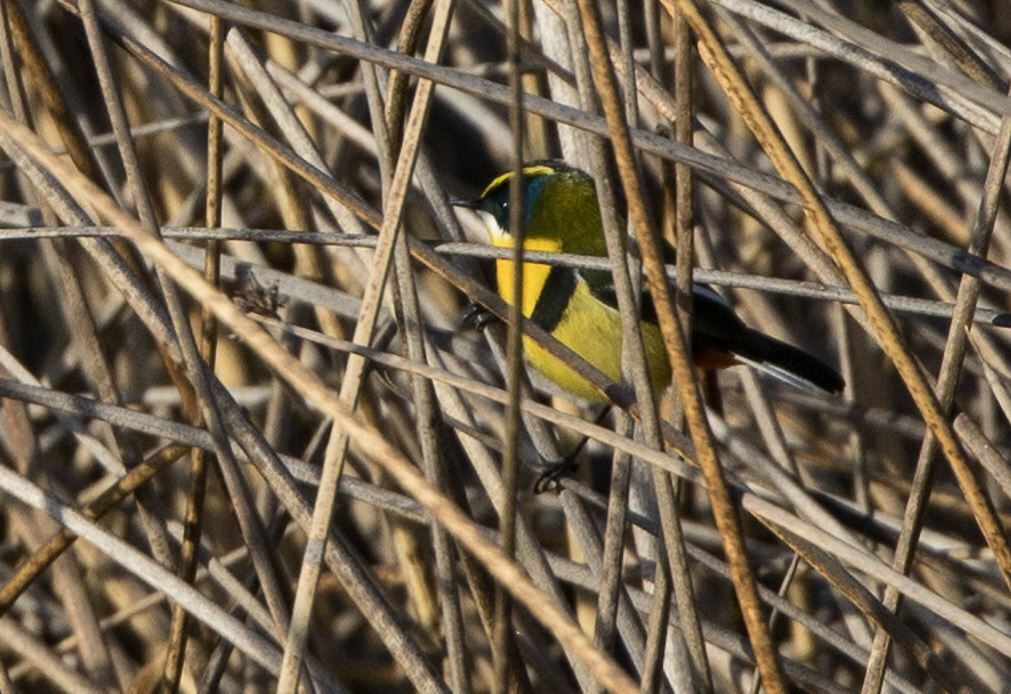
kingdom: Animalia
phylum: Chordata
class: Aves
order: Passeriformes
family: Tyrannidae
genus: Tachuris
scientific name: Tachuris rubrigastra
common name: Many-colored rush tyrant
